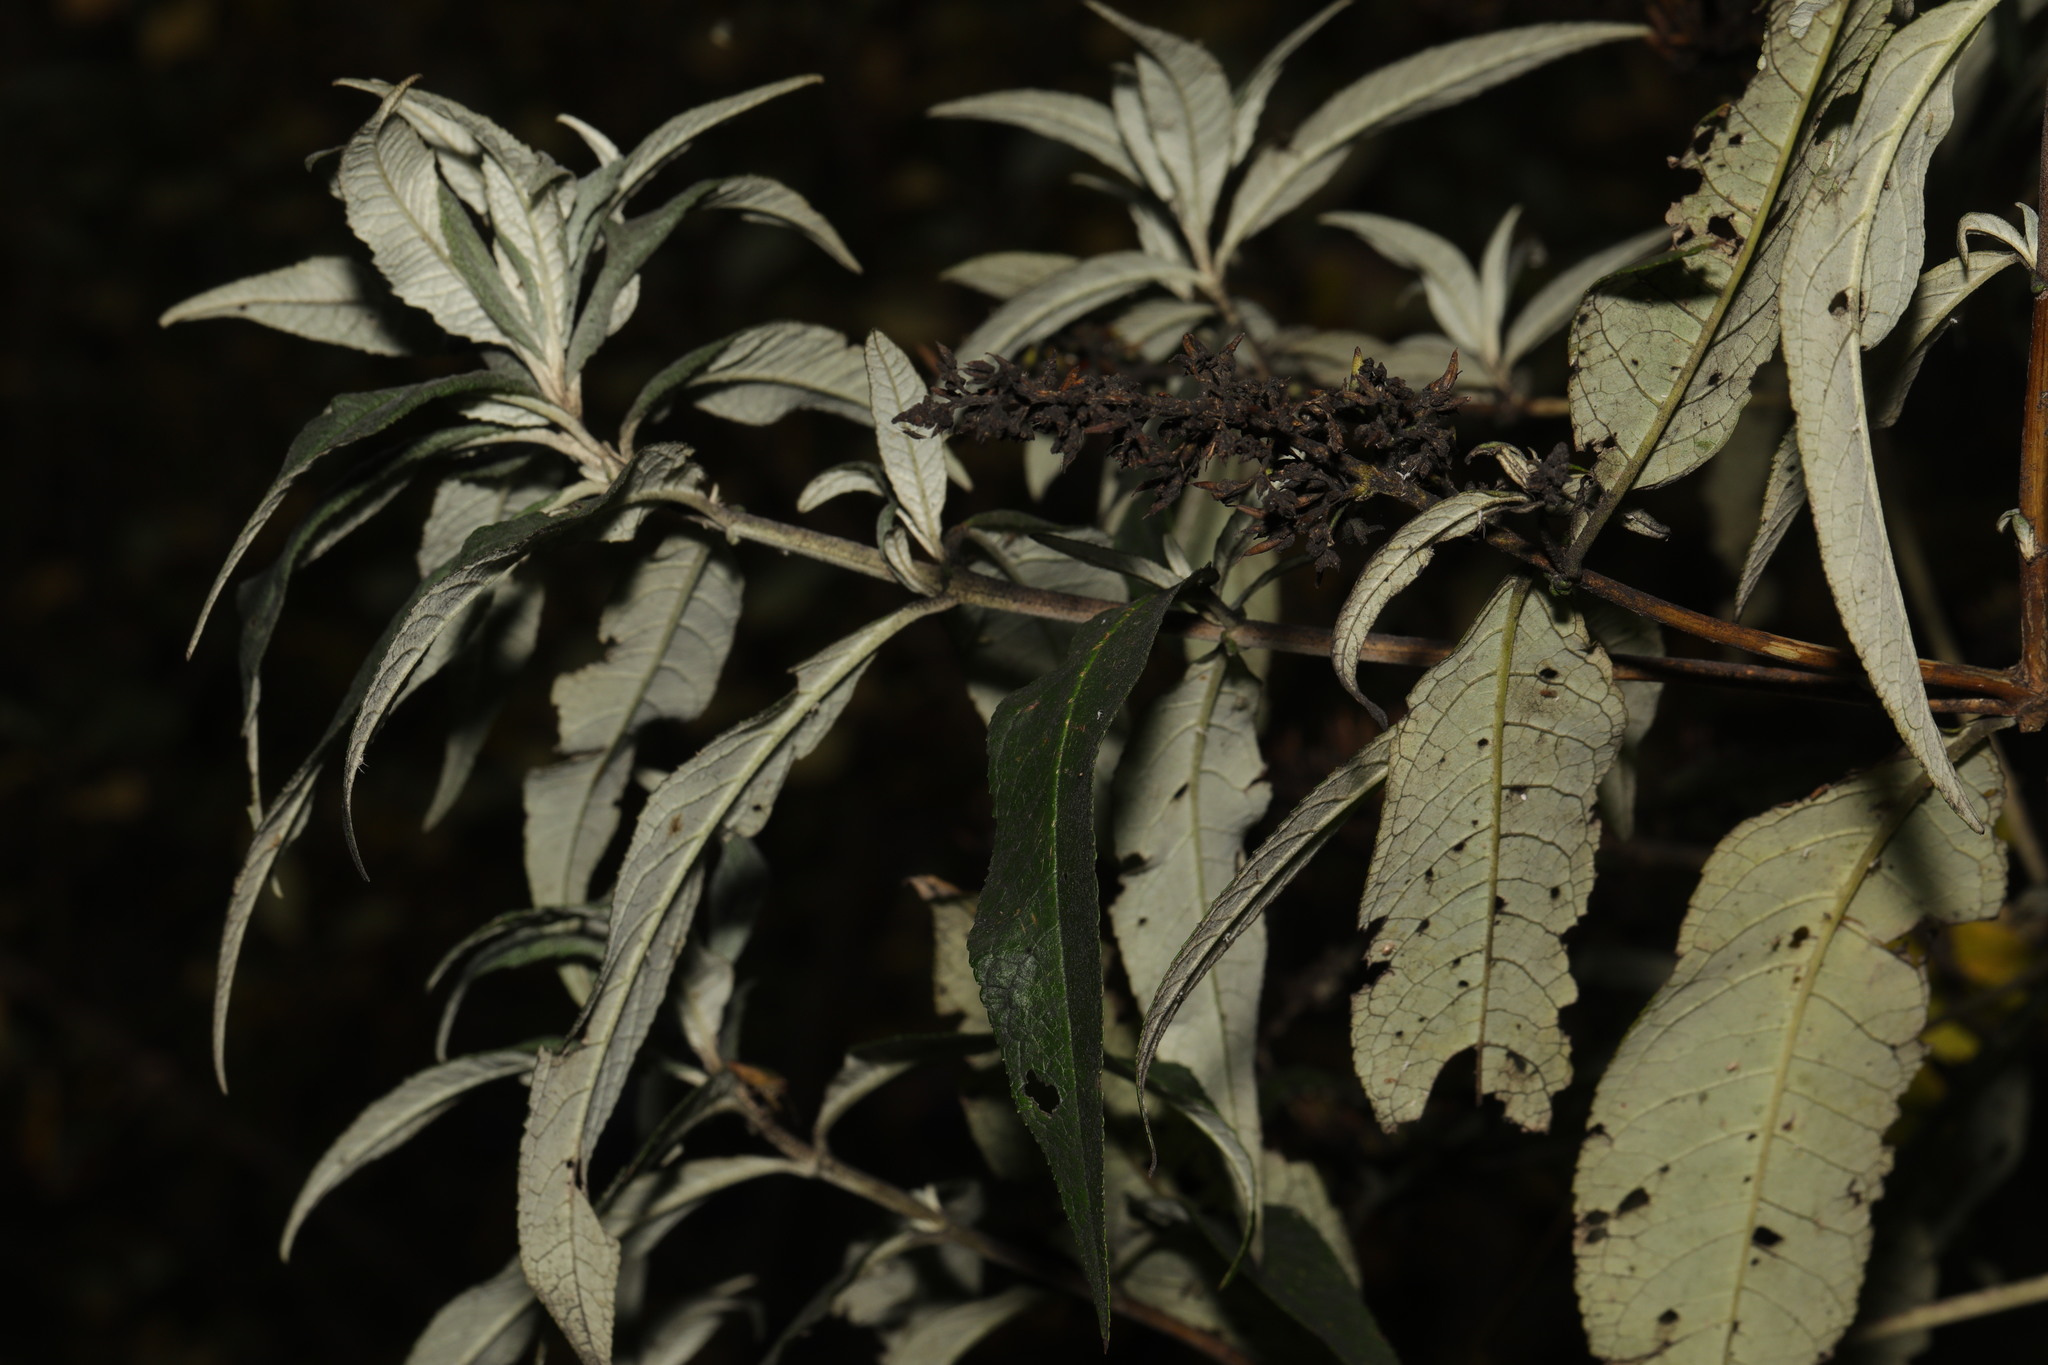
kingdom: Plantae
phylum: Tracheophyta
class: Magnoliopsida
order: Lamiales
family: Scrophulariaceae
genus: Buddleja
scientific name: Buddleja davidii
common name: Butterfly-bush
